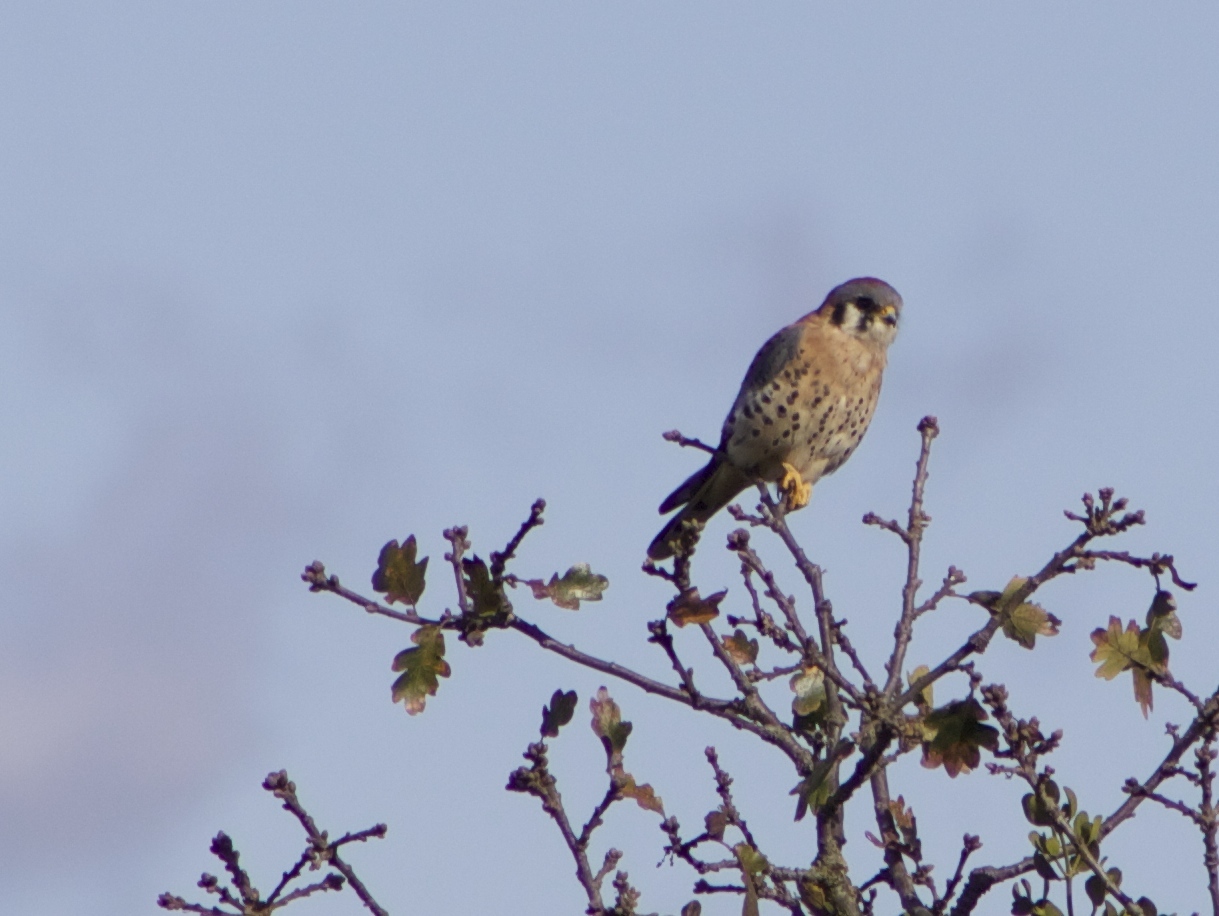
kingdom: Animalia
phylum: Chordata
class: Aves
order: Falconiformes
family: Falconidae
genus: Falco
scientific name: Falco sparverius
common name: American kestrel
